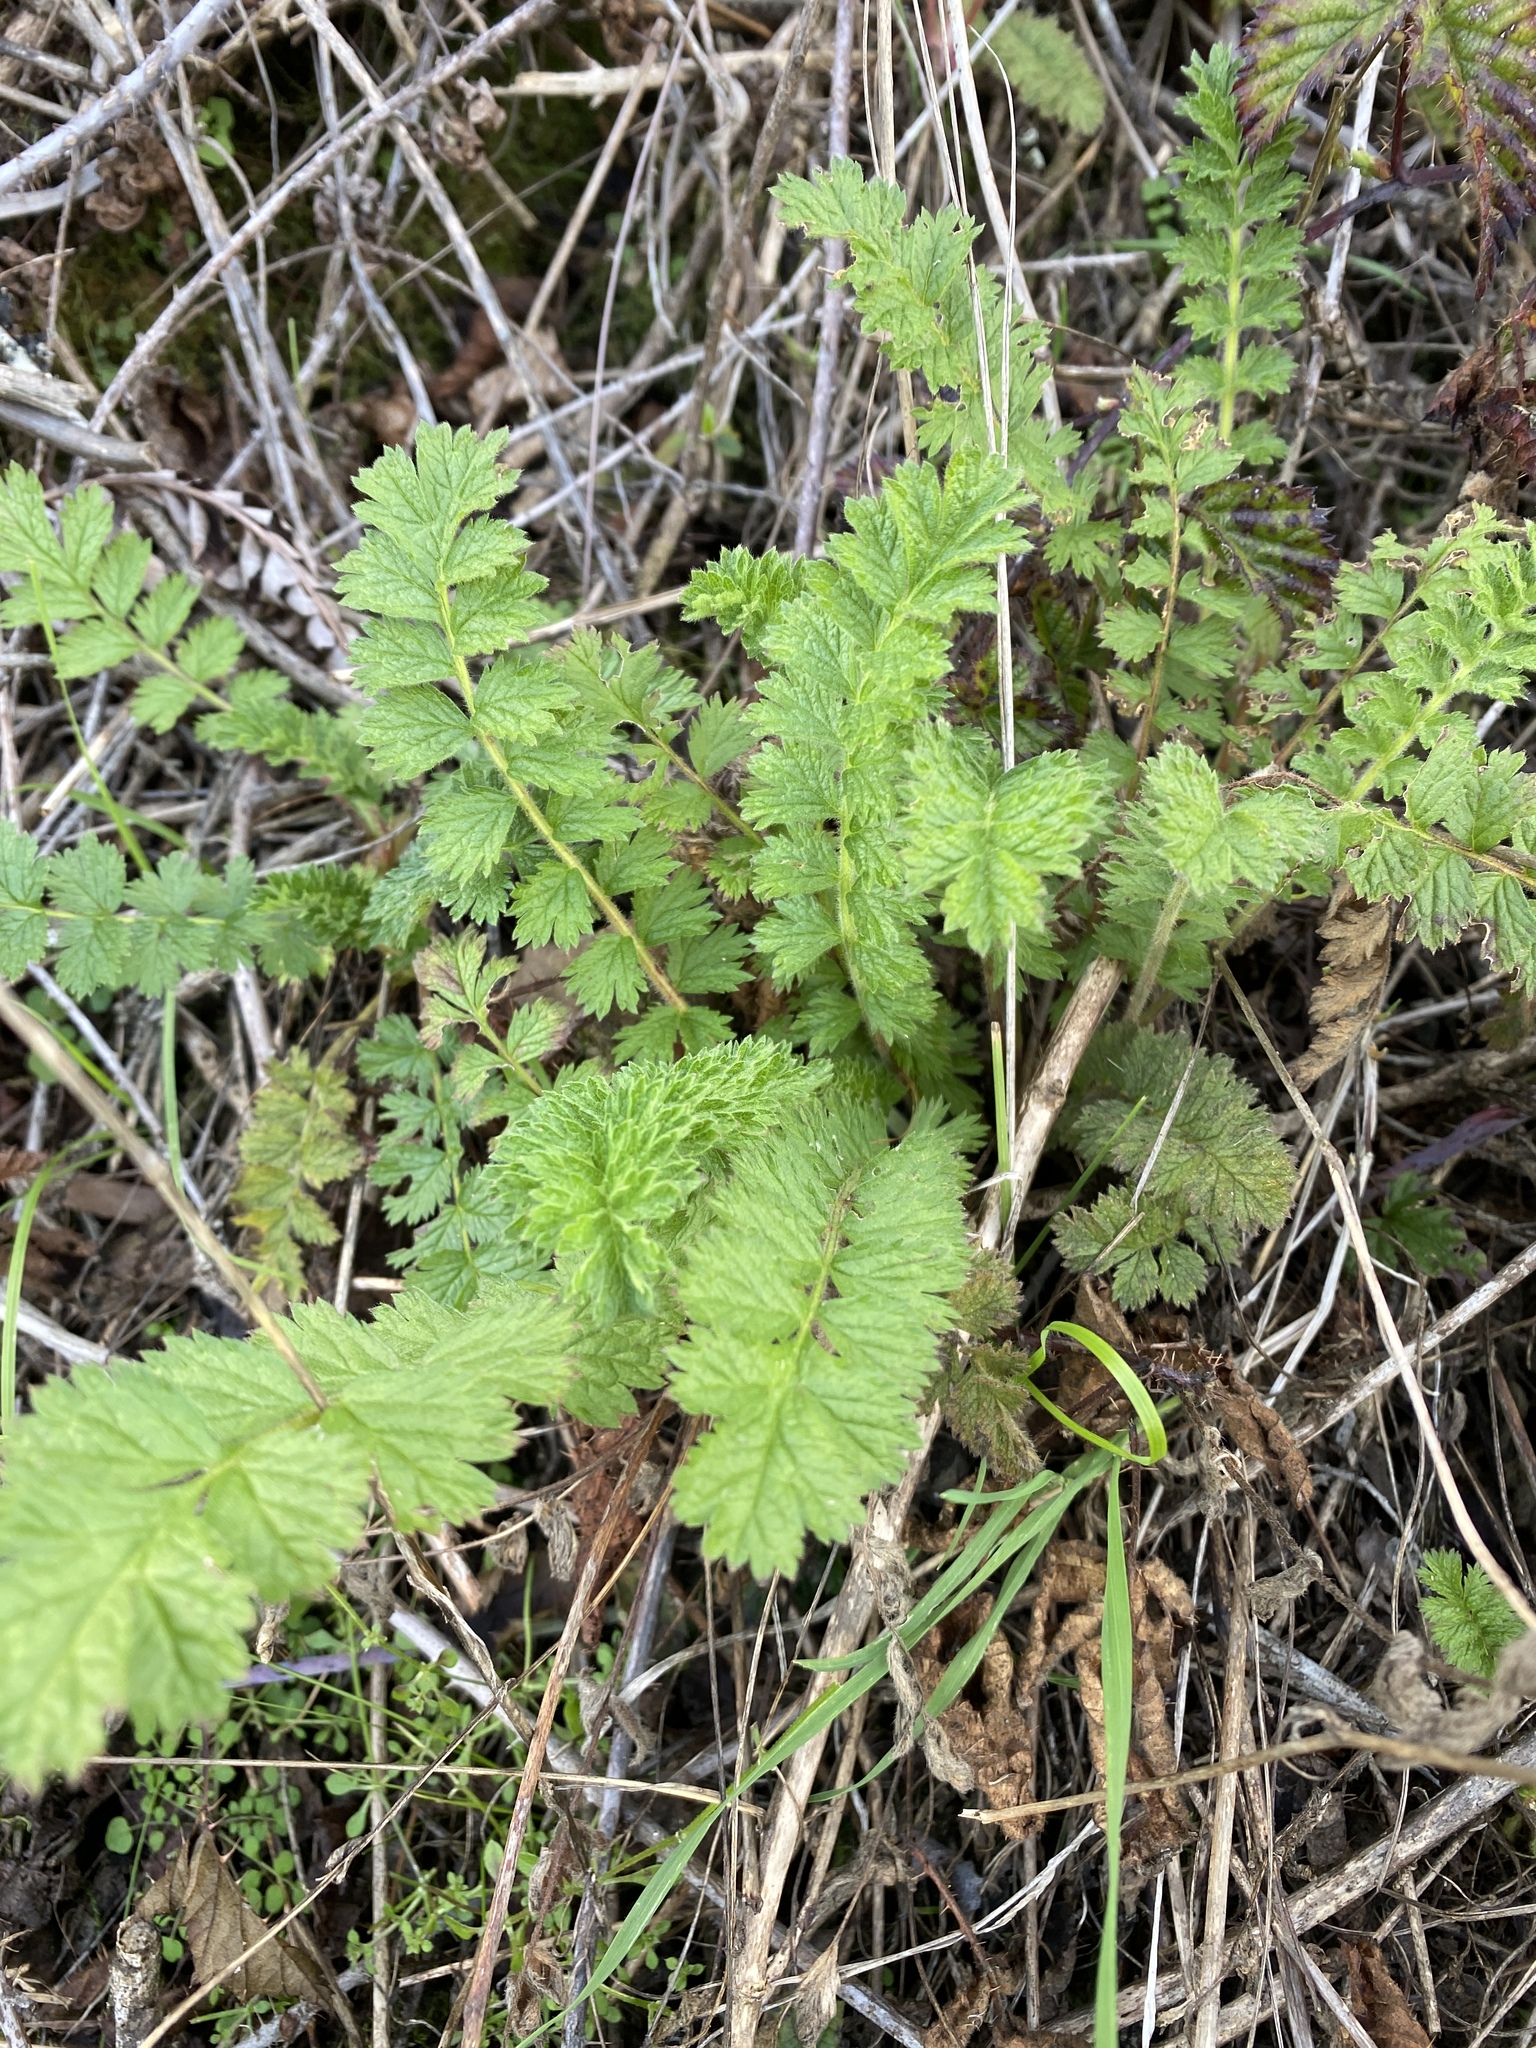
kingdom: Plantae
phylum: Tracheophyta
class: Magnoliopsida
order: Rosales
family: Rosaceae
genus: Potentilla
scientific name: Potentilla californica
